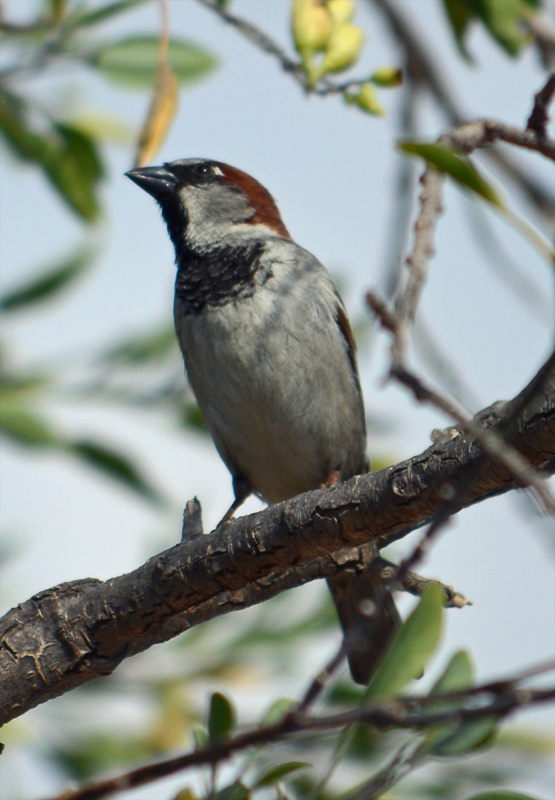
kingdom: Animalia
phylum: Chordata
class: Aves
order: Passeriformes
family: Passeridae
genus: Passer
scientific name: Passer domesticus
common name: House sparrow
